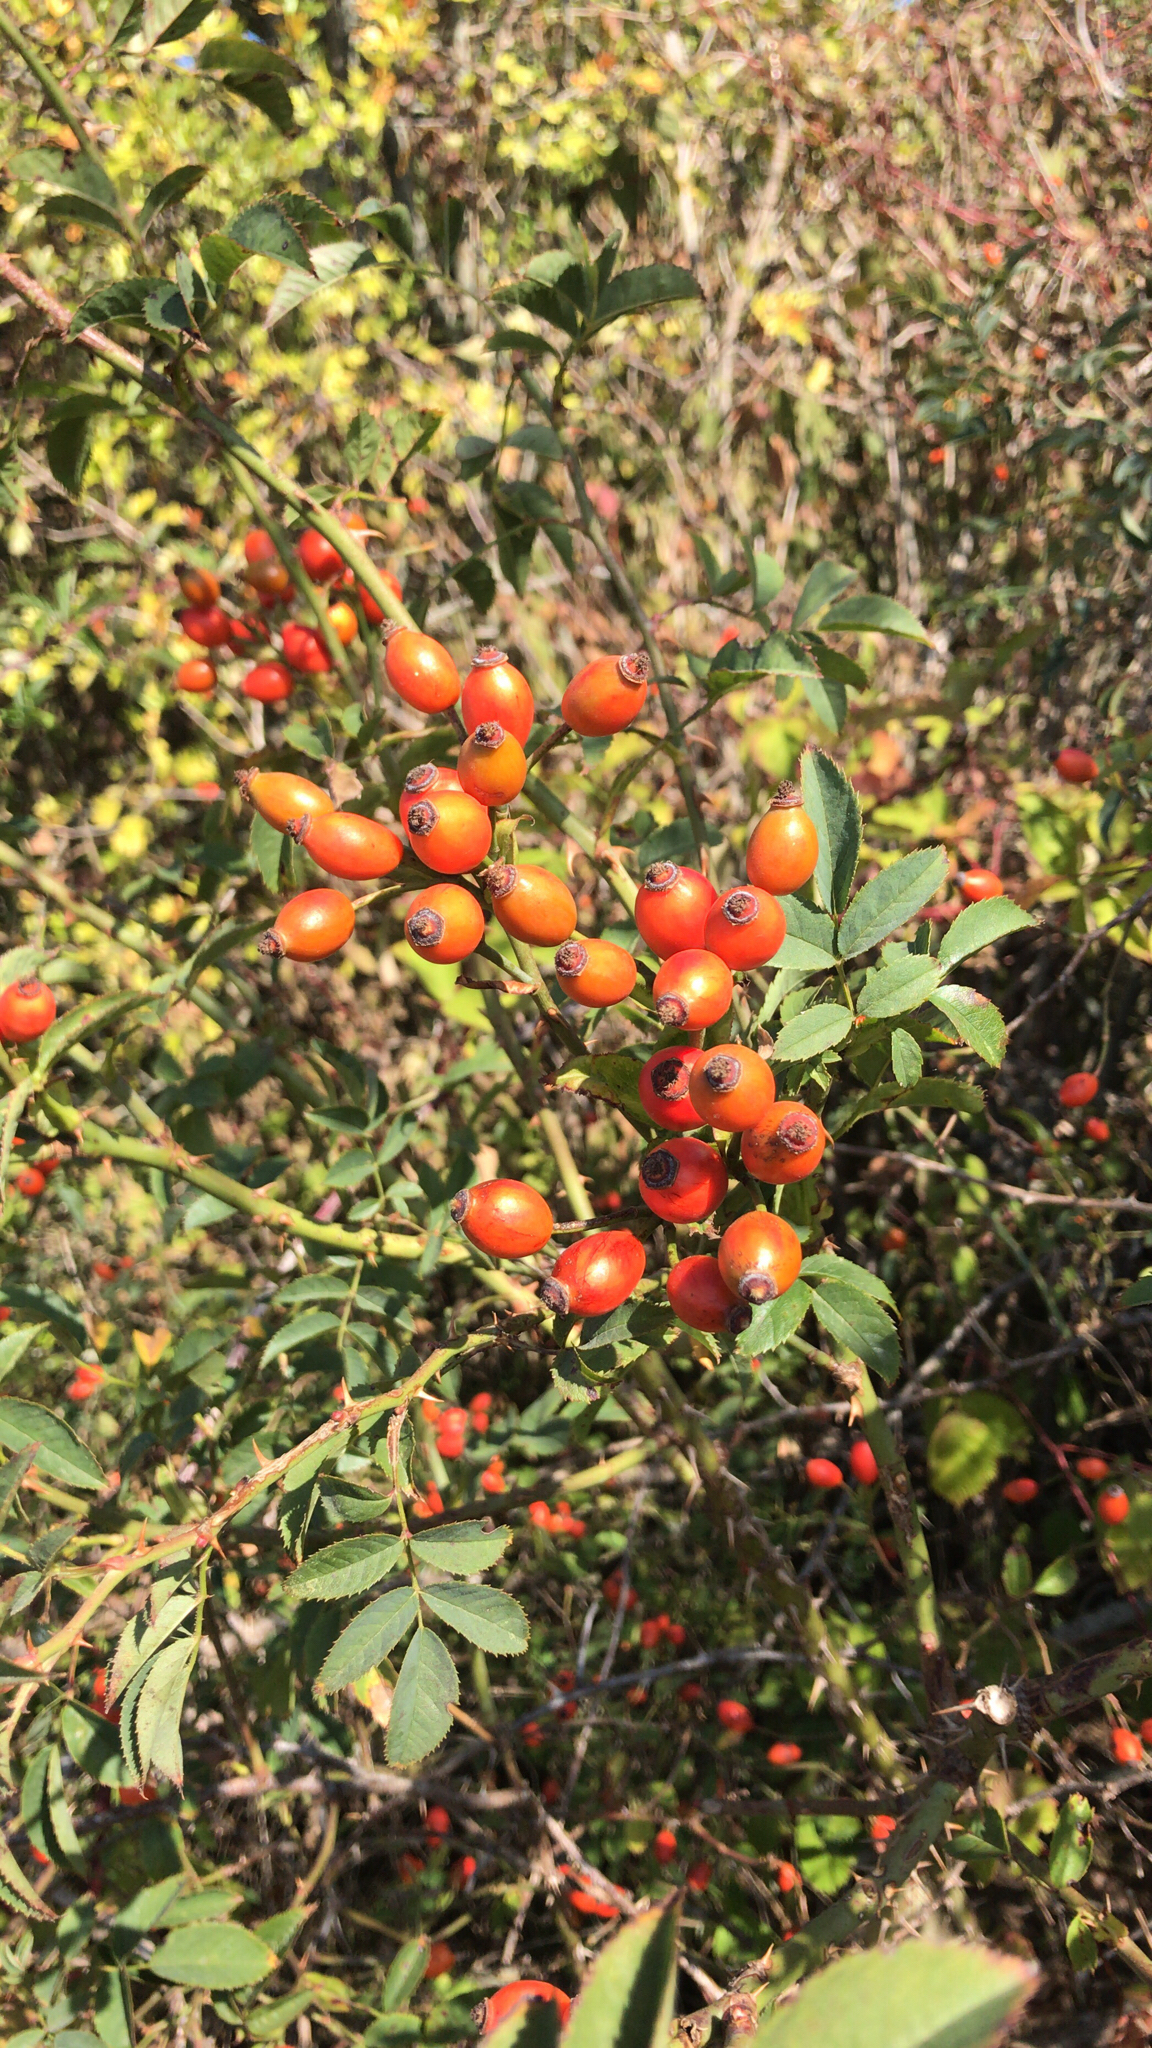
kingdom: Plantae
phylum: Tracheophyta
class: Magnoliopsida
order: Rosales
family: Rosaceae
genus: Rosa
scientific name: Rosa canina
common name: Dog rose
